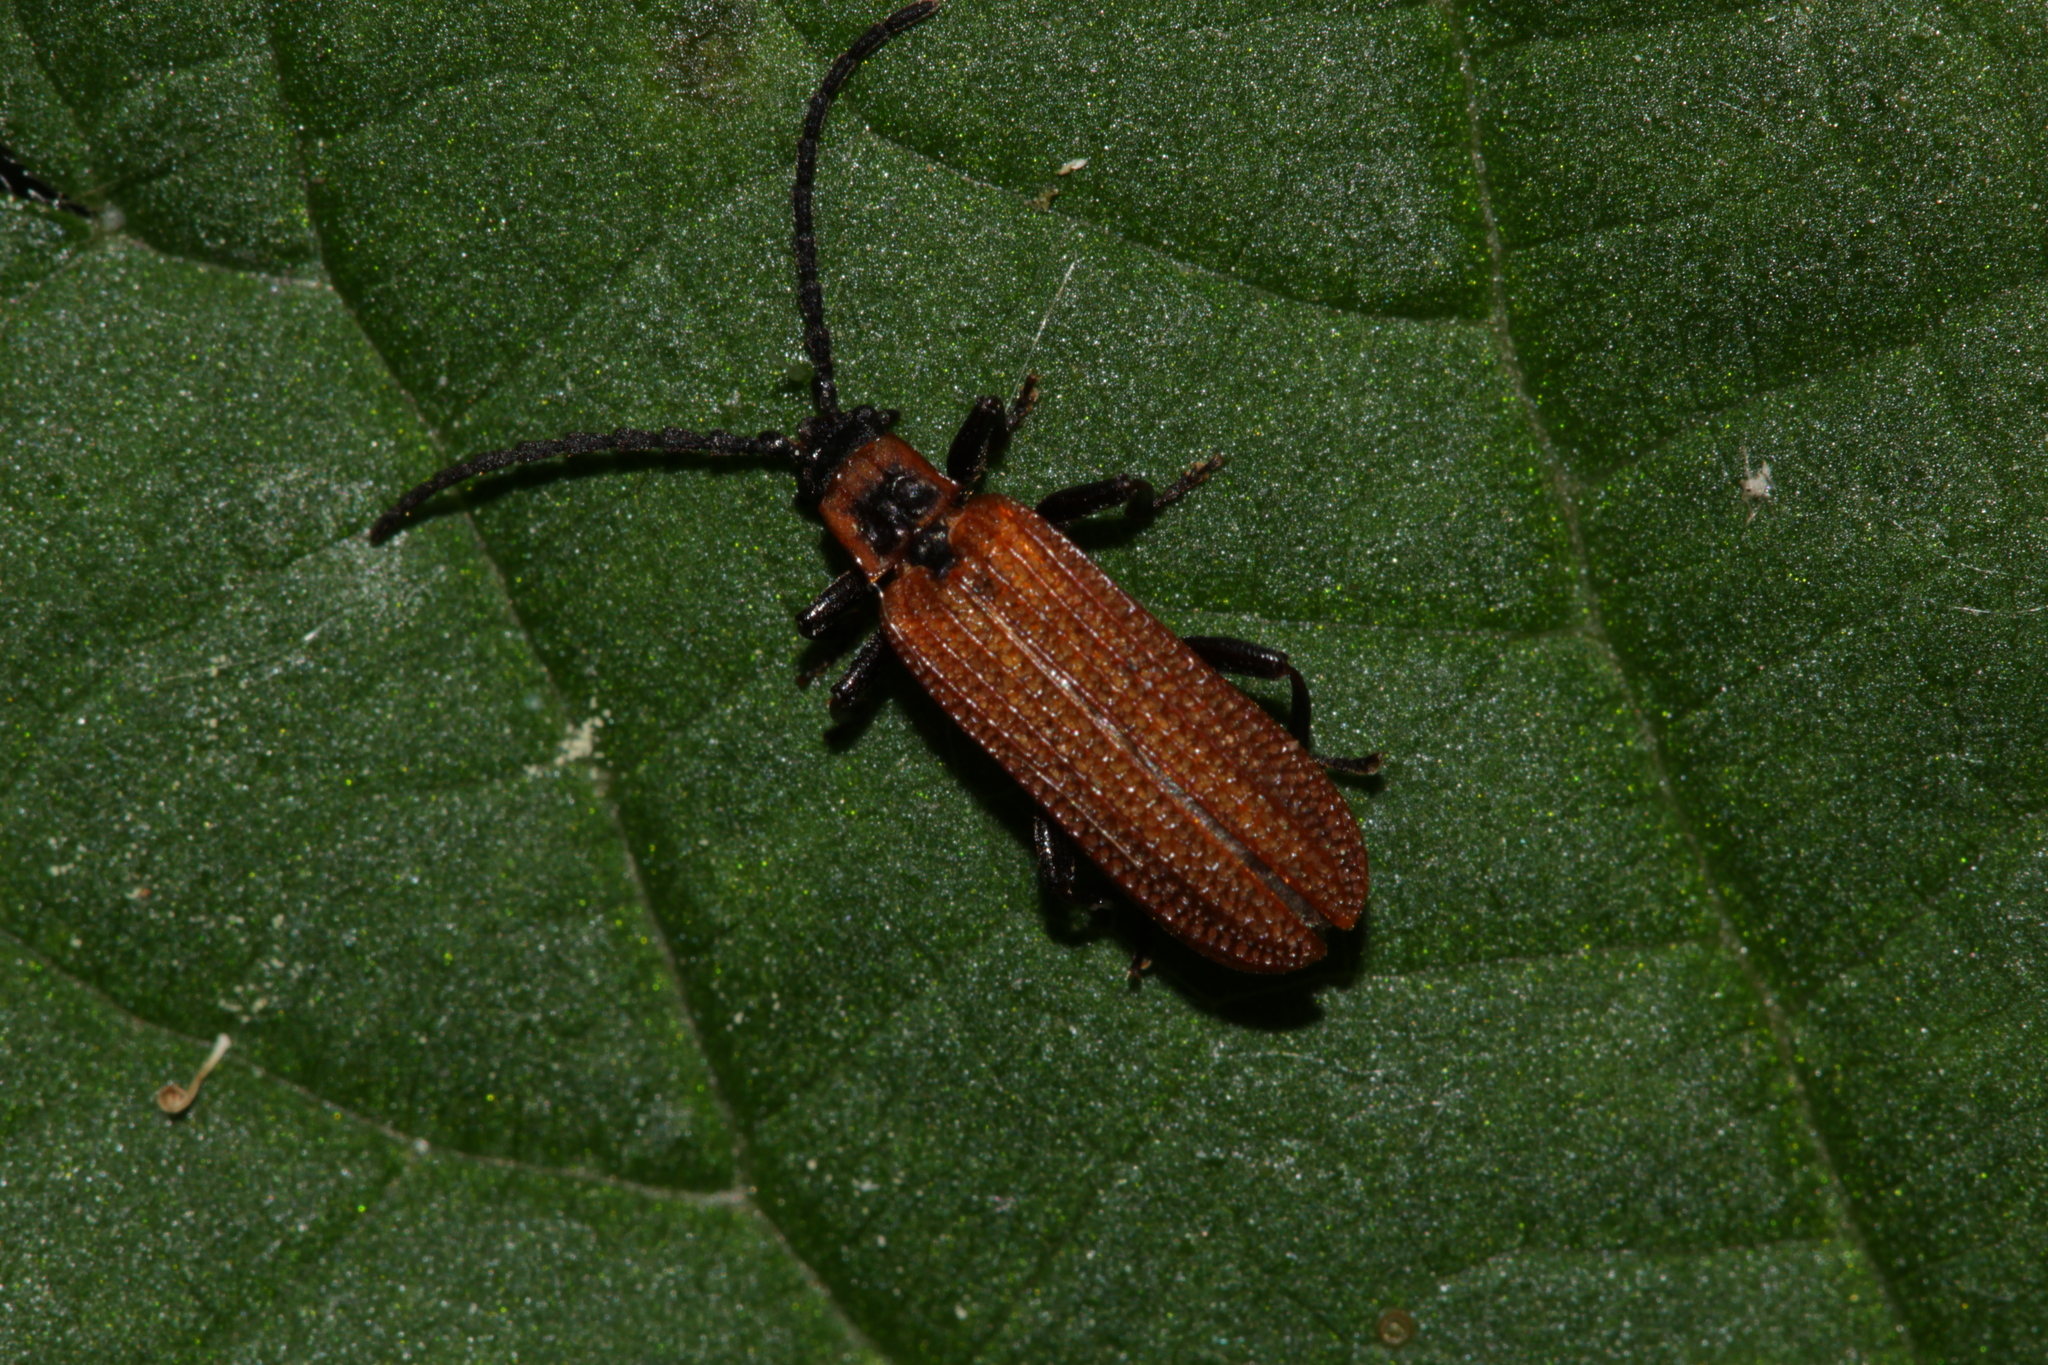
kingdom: Animalia
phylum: Arthropoda
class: Insecta
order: Coleoptera
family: Lycidae
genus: Erotides
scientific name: Erotides cosnardi
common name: Cosnard's net-winged beetle
